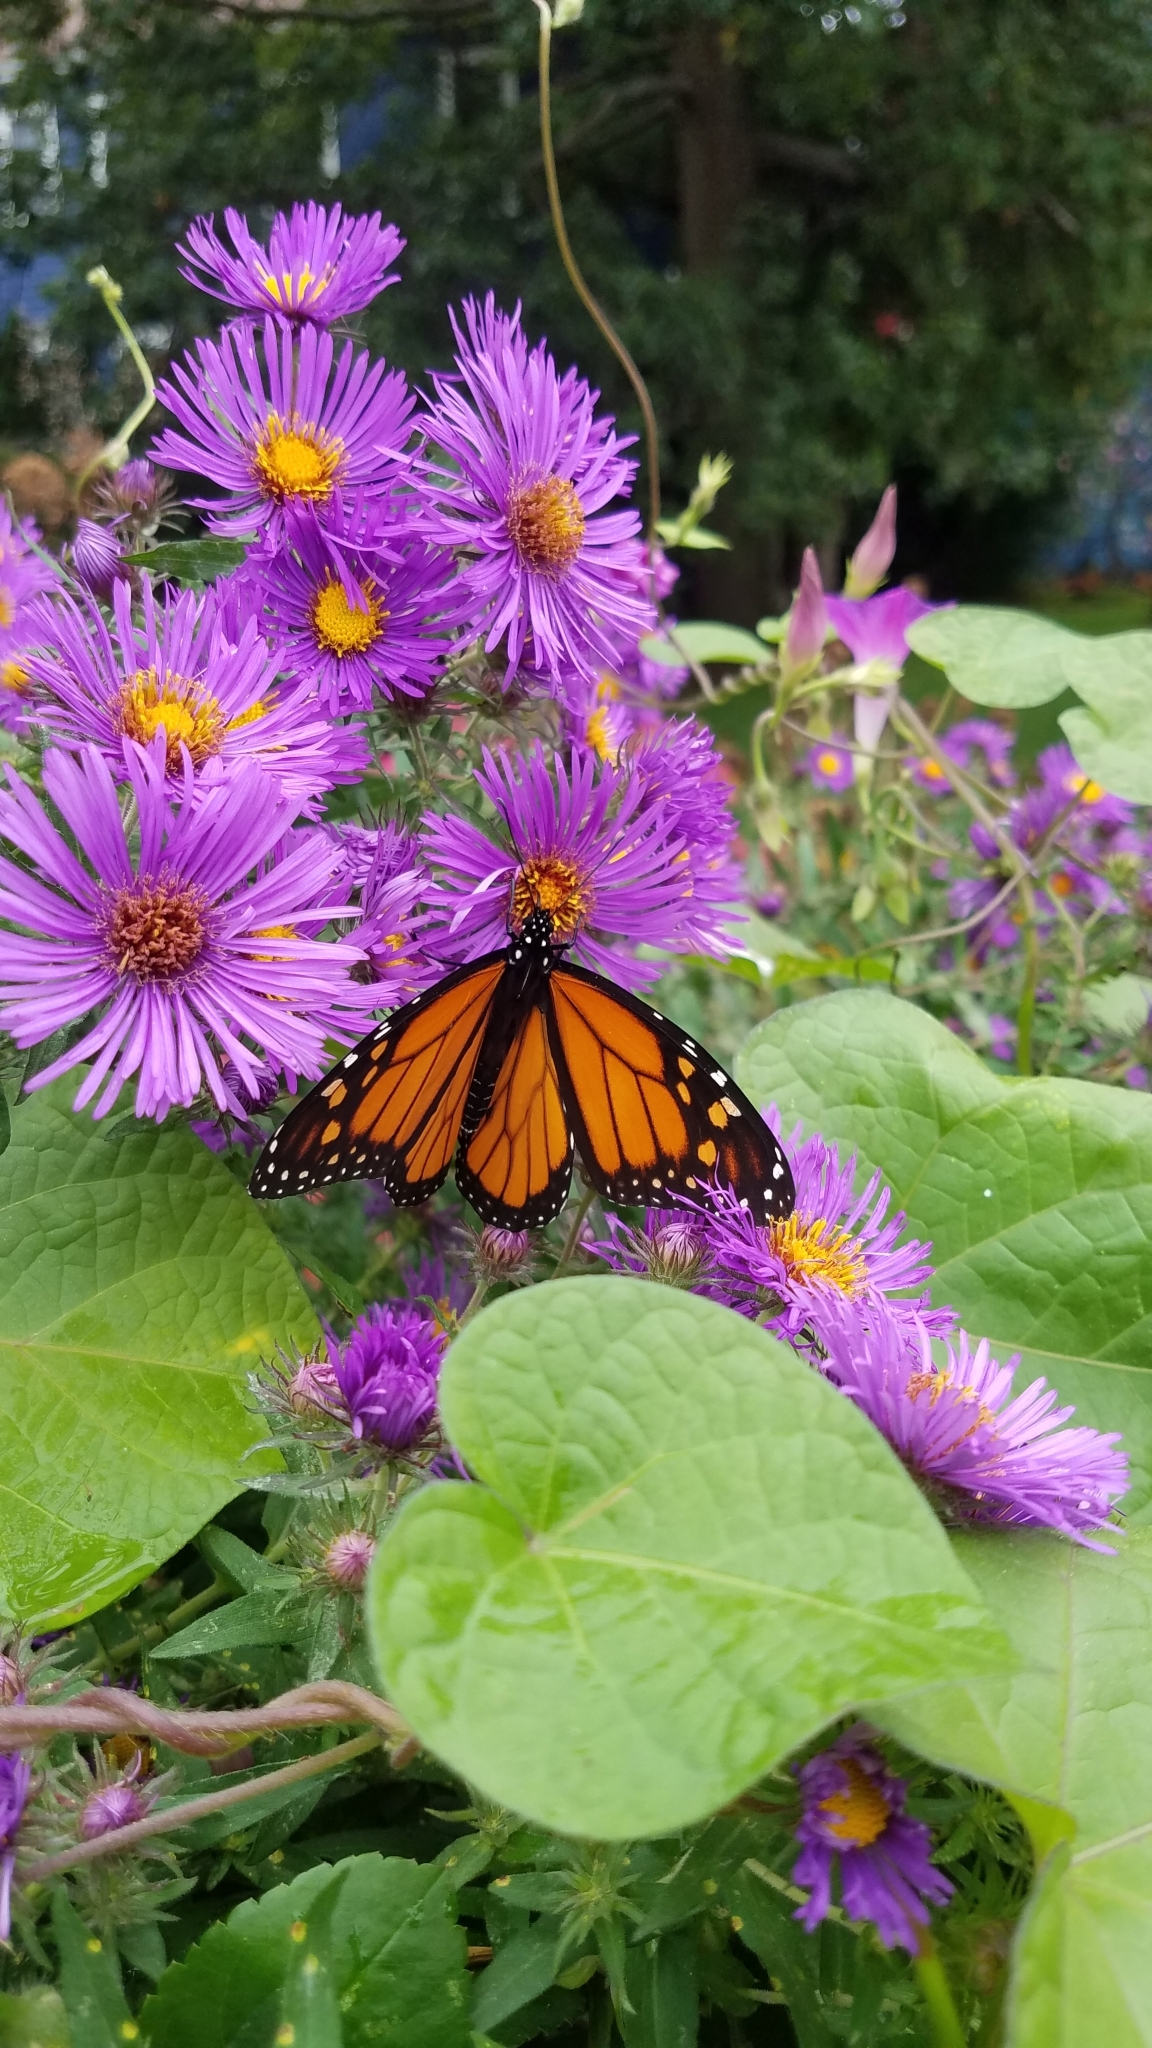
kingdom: Animalia
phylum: Arthropoda
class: Insecta
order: Lepidoptera
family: Nymphalidae
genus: Danaus
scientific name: Danaus plexippus
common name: Monarch
